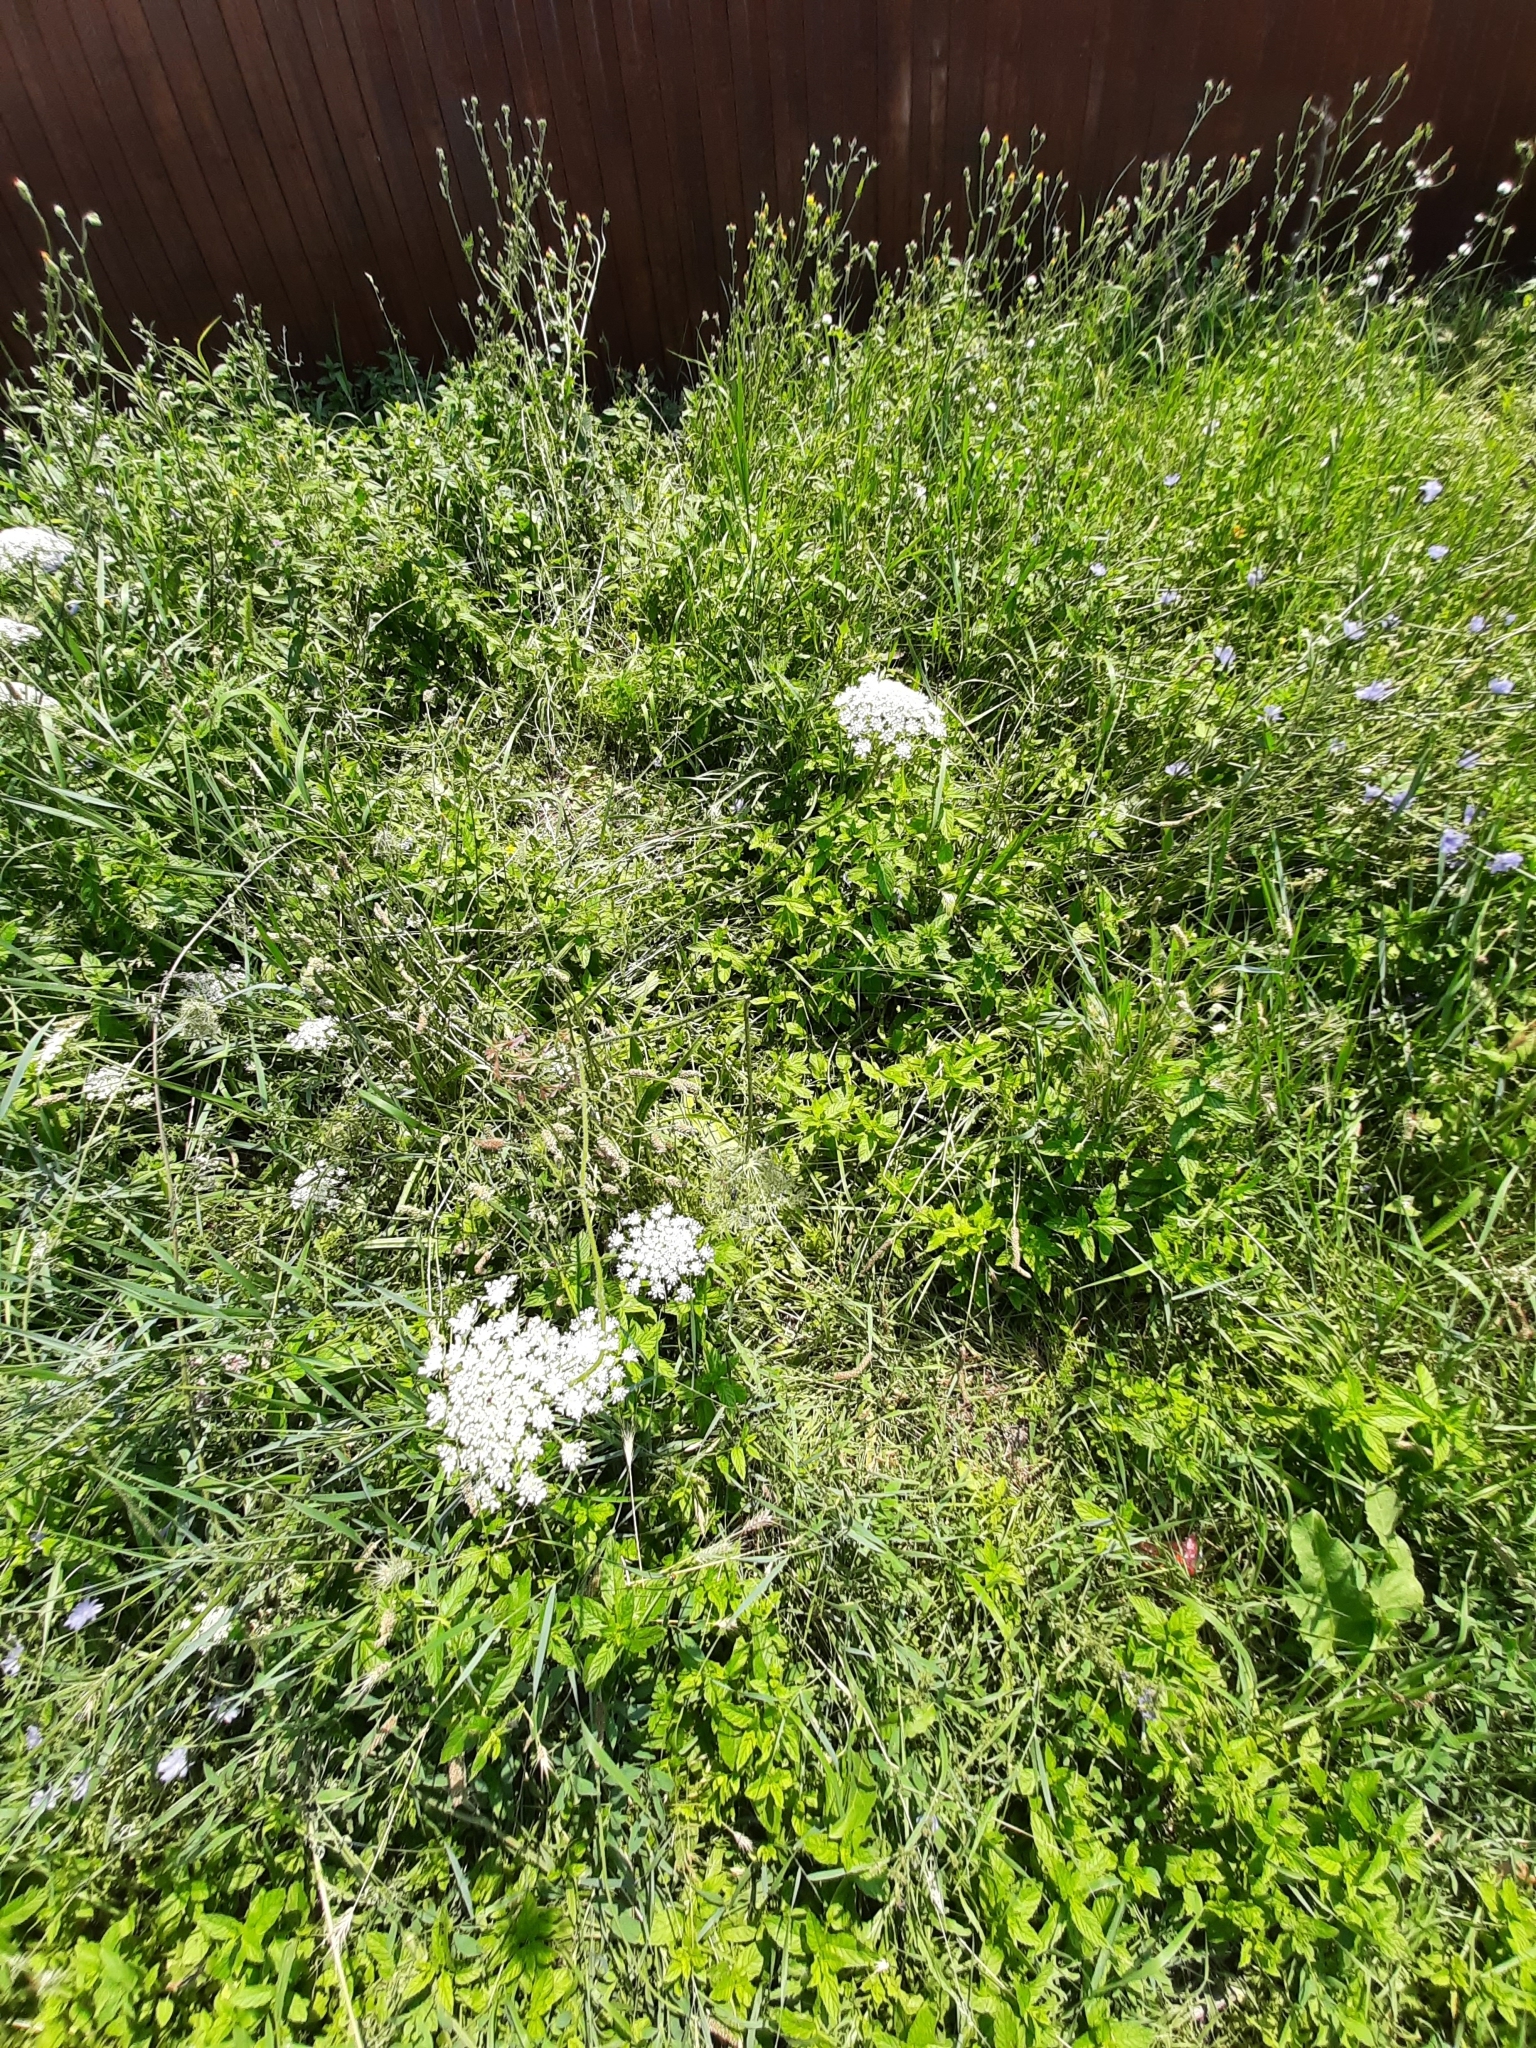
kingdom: Plantae
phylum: Tracheophyta
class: Magnoliopsida
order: Apiales
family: Apiaceae
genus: Daucus
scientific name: Daucus carota
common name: Wild carrot
